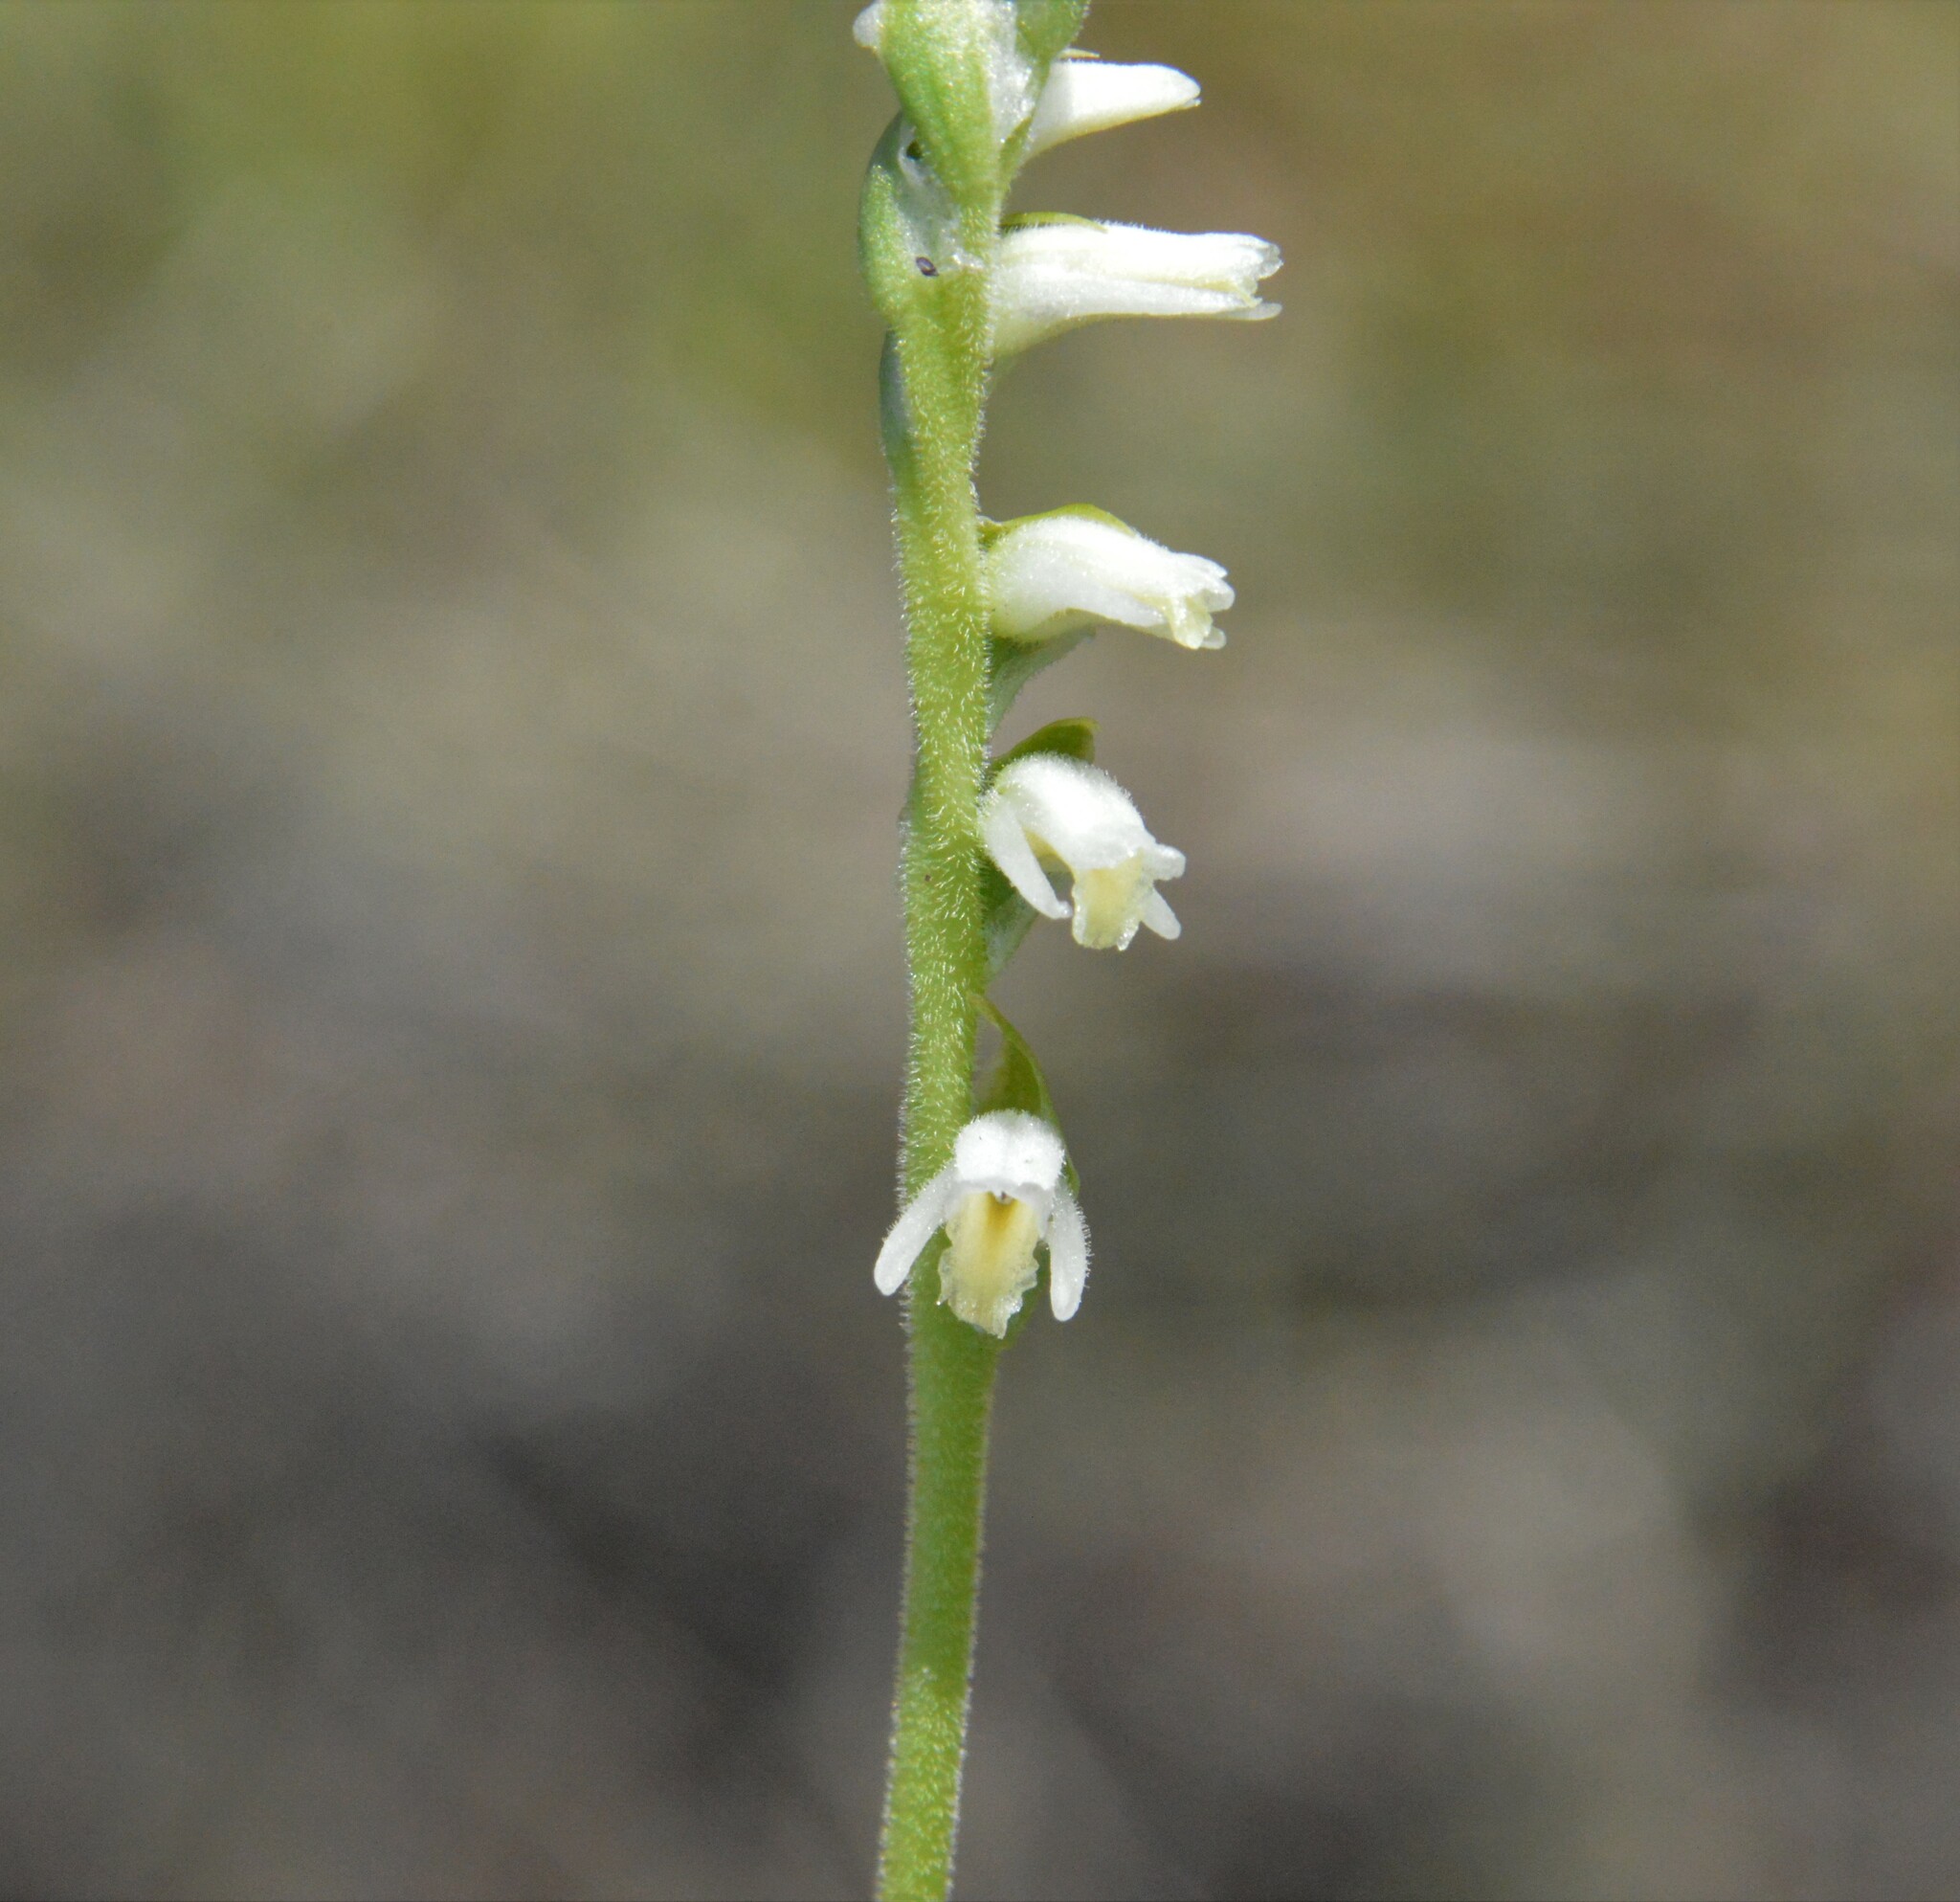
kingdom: Plantae
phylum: Tracheophyta
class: Liliopsida
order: Asparagales
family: Orchidaceae
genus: Spiranthes
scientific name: Spiranthes vernalis
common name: Spring ladies'-tresses
